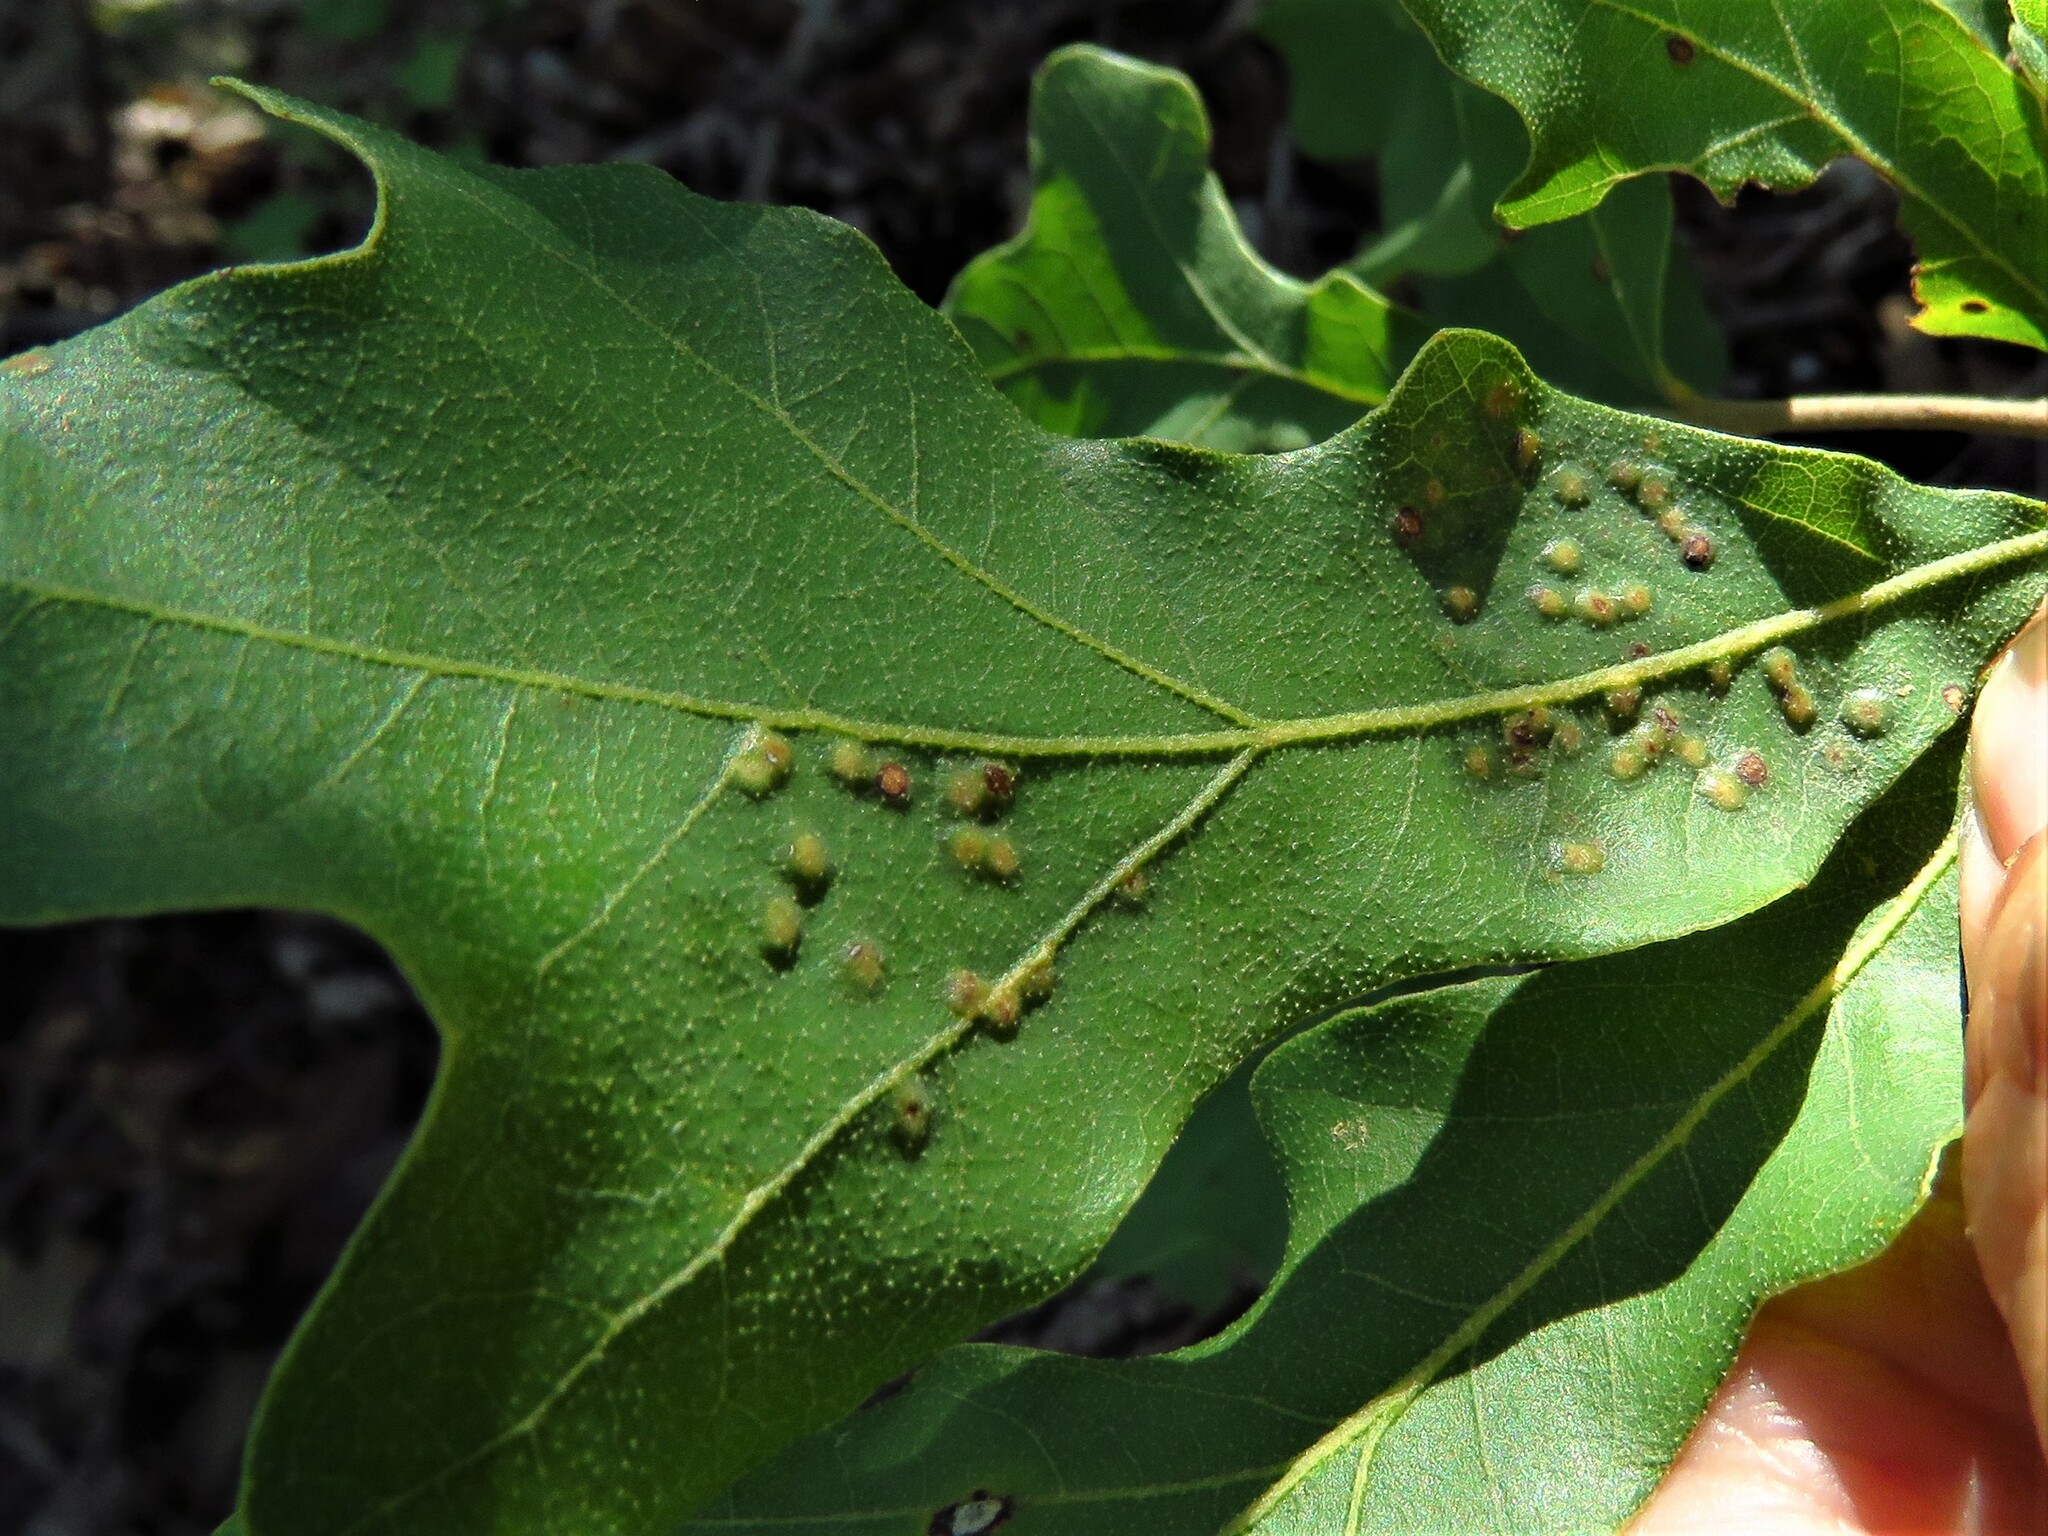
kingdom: Animalia
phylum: Arthropoda
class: Insecta
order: Hymenoptera
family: Cynipidae
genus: Neuroterus
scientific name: Neuroterus niger
